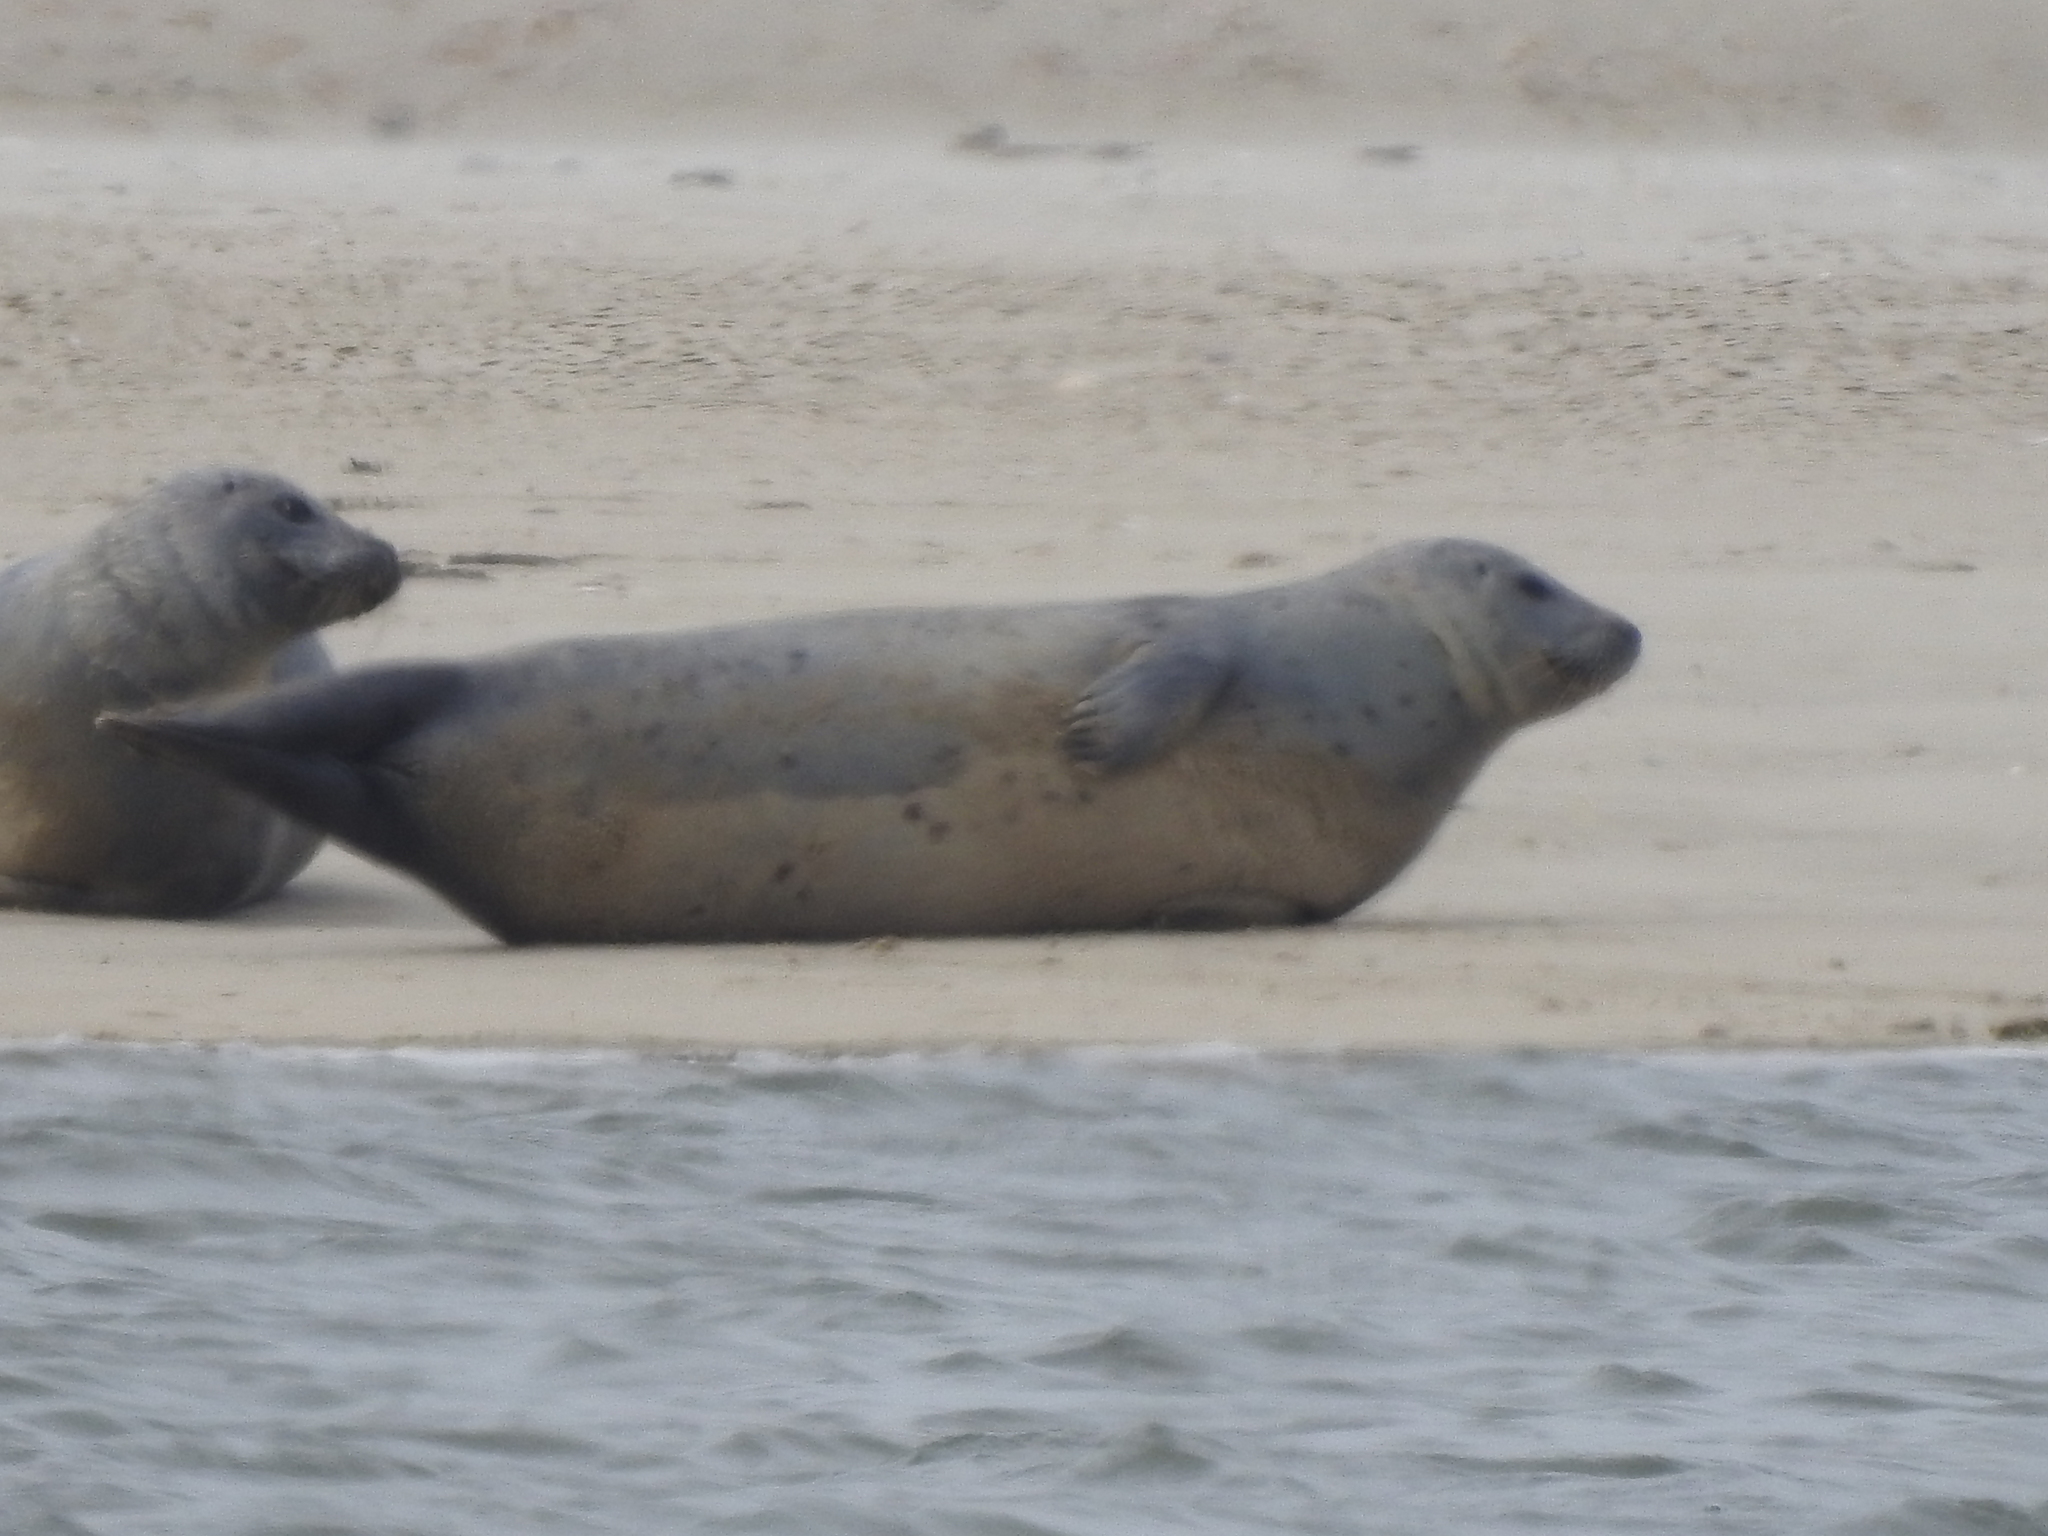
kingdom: Animalia
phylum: Chordata
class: Mammalia
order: Carnivora
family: Phocidae
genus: Phoca
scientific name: Phoca vitulina
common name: Harbor seal
